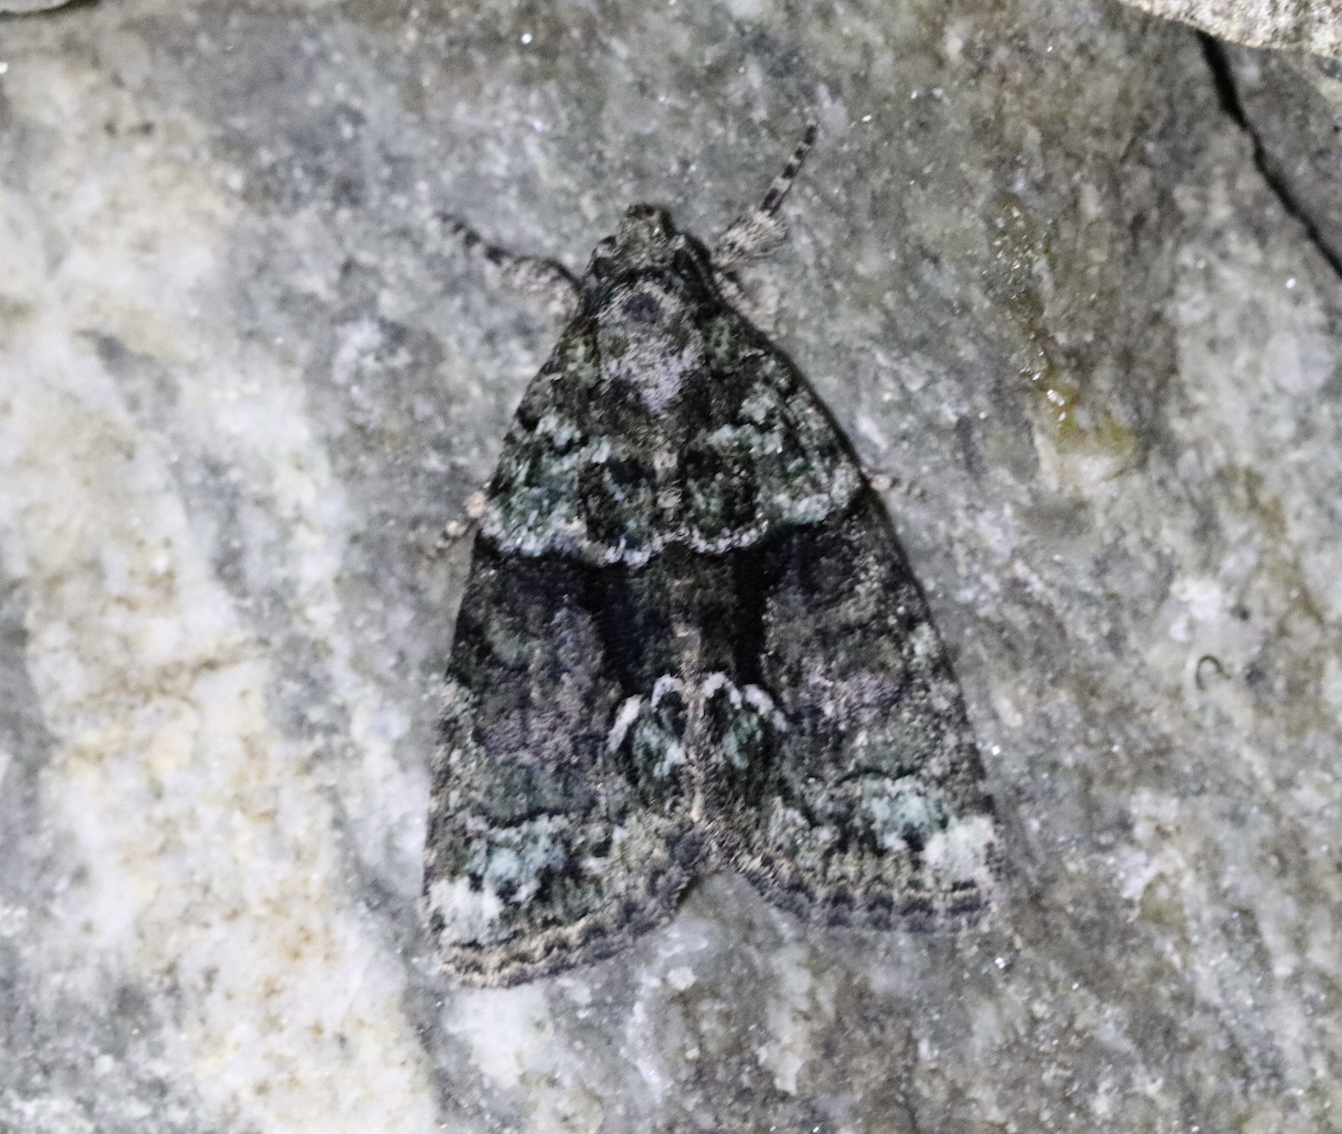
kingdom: Animalia
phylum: Arthropoda
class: Insecta
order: Lepidoptera
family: Noctuidae
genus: Cryphia
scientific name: Cryphia algae
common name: Tree-lichen beauty
